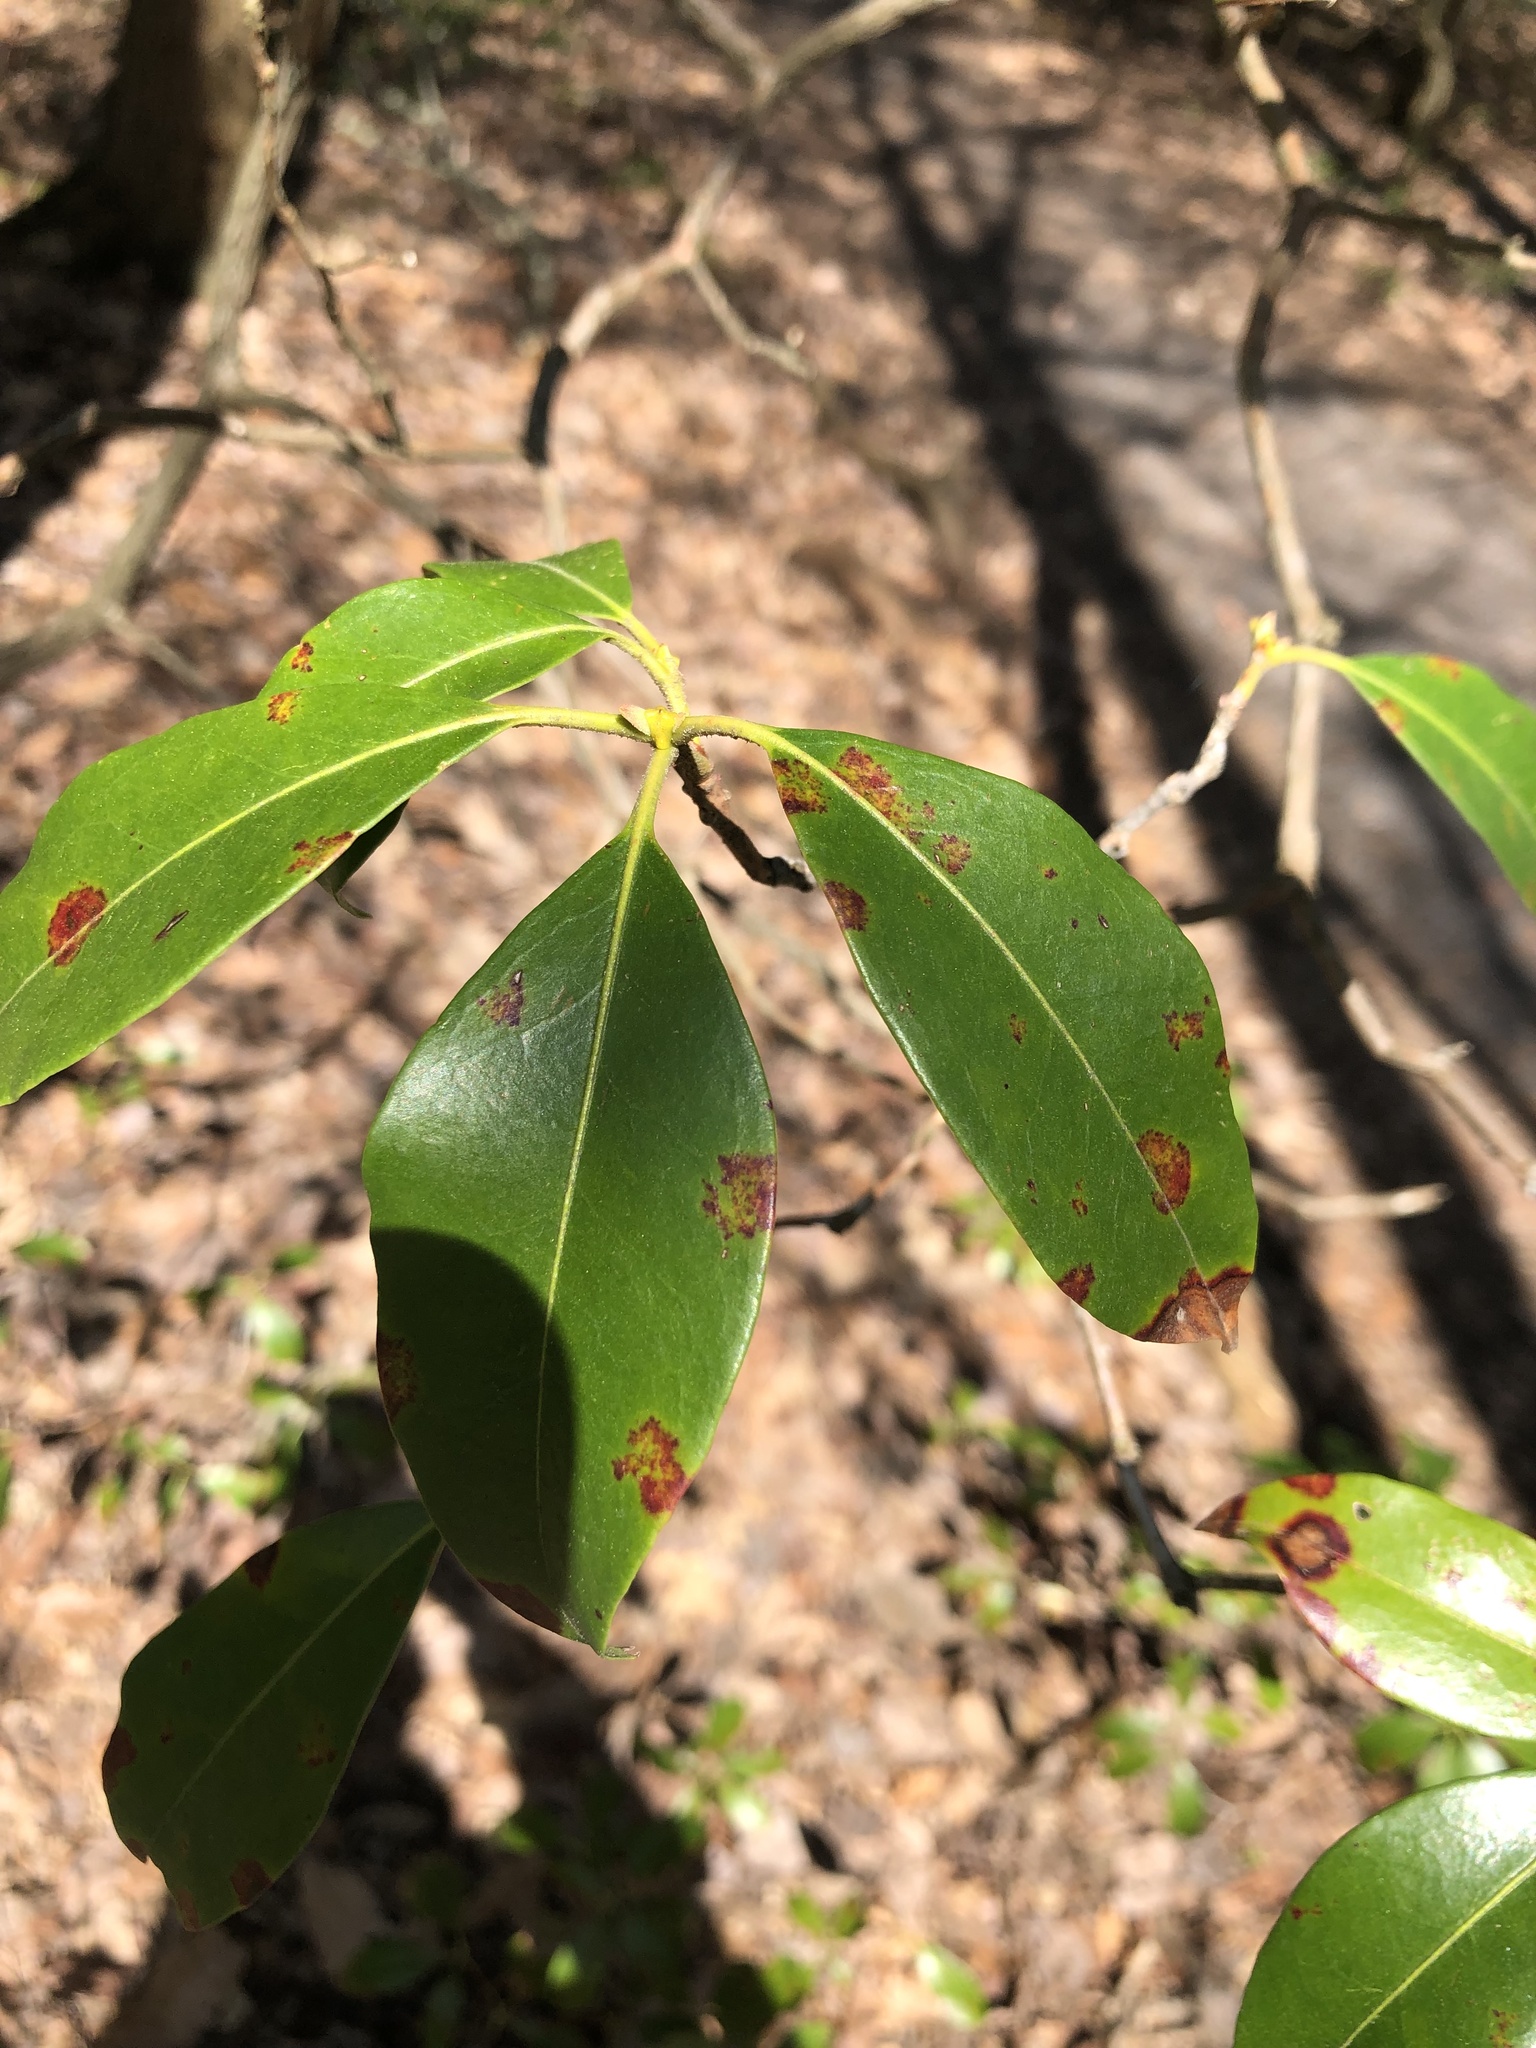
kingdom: Plantae
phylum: Tracheophyta
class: Magnoliopsida
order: Ericales
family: Ericaceae
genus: Kalmia
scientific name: Kalmia latifolia
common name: Mountain-laurel
